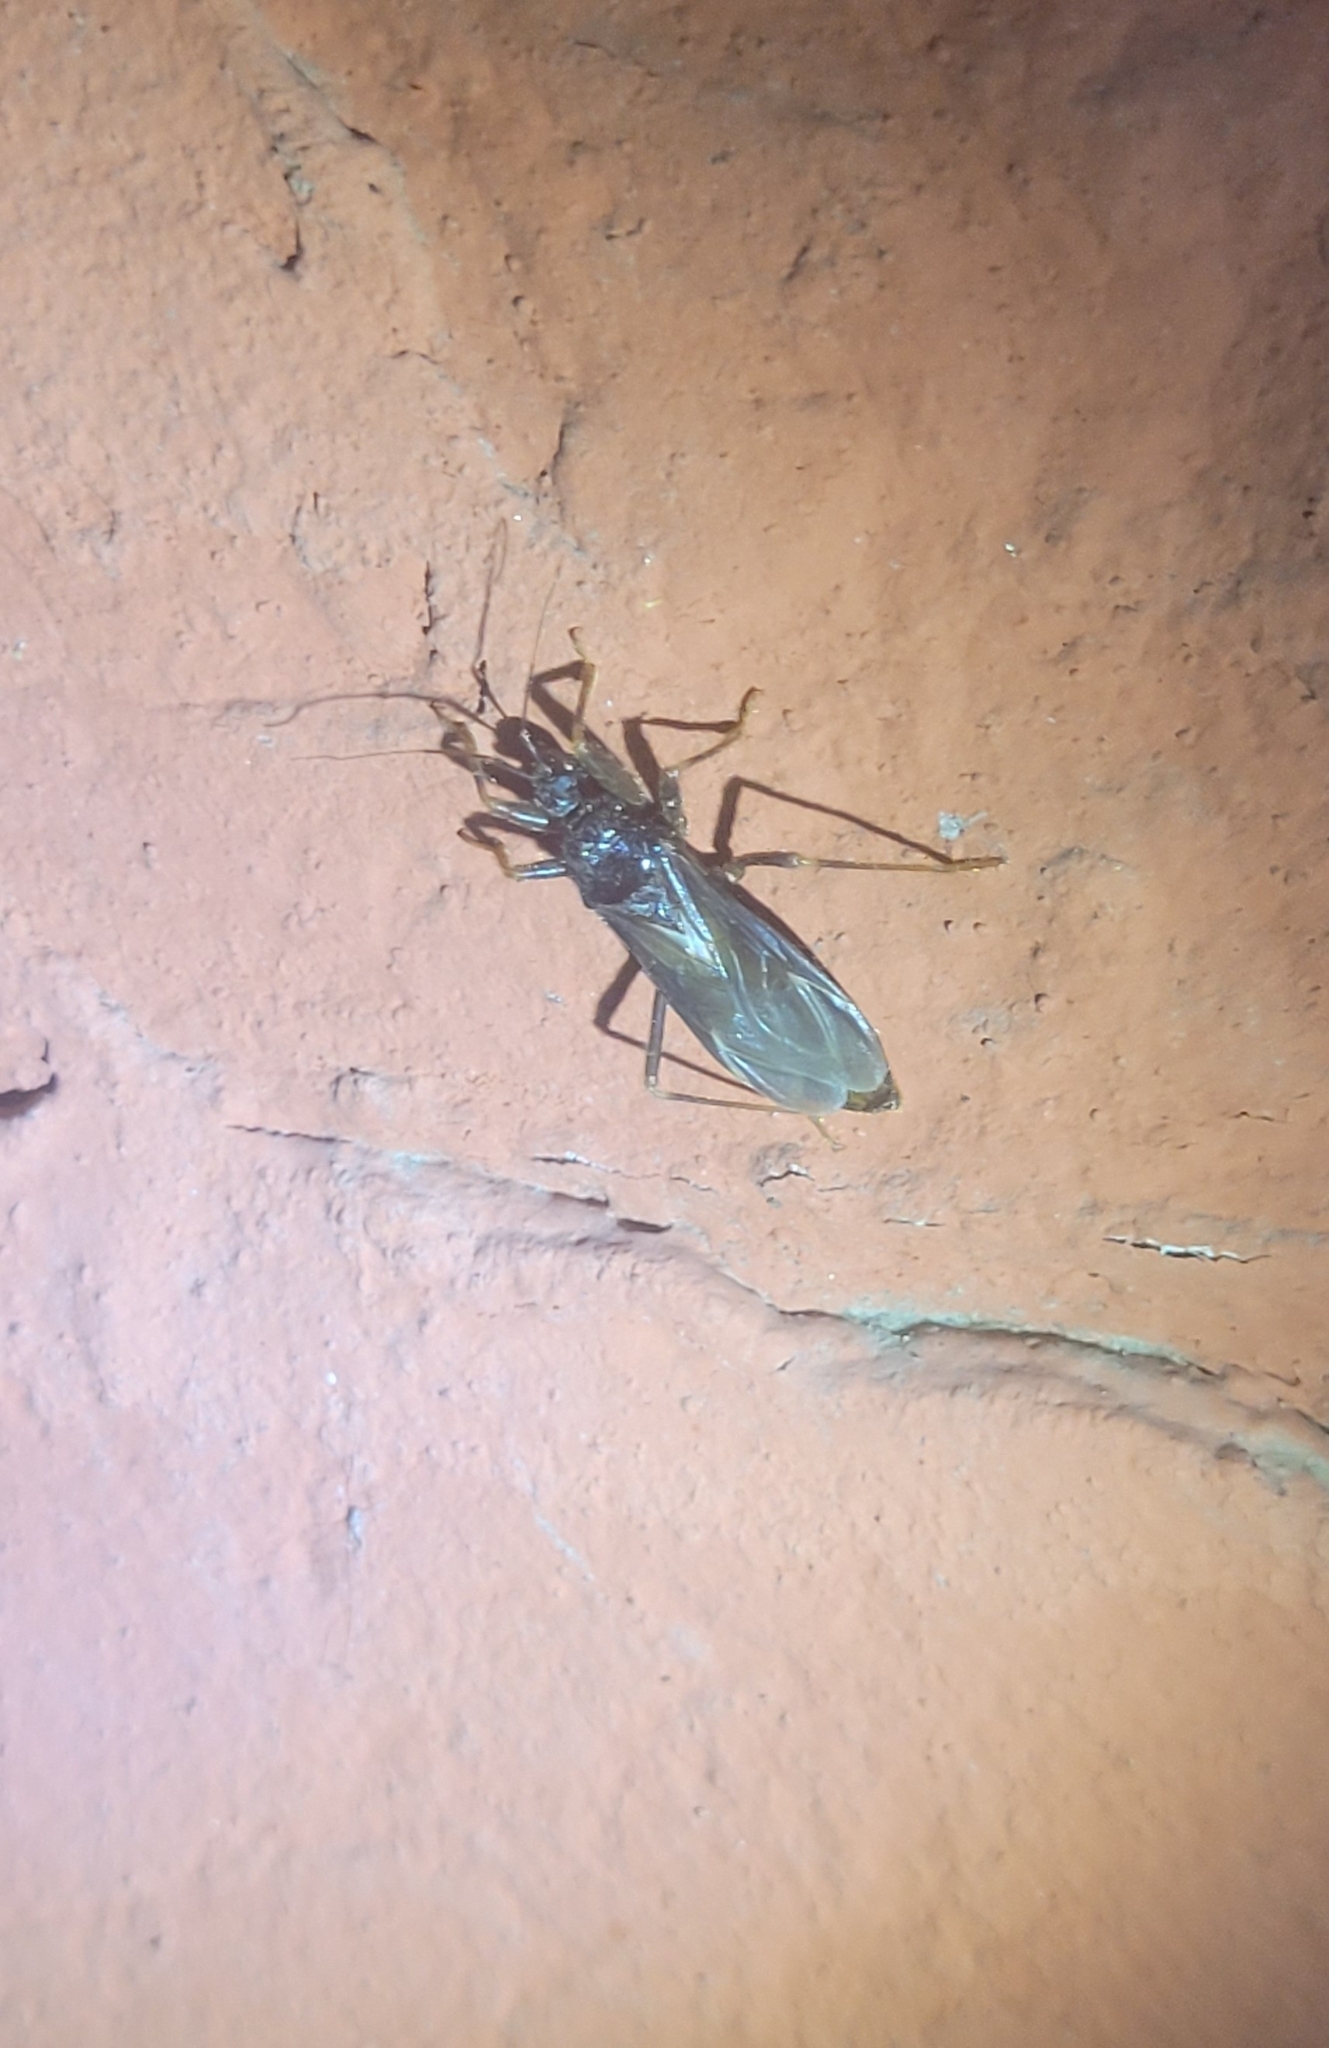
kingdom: Animalia
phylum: Arthropoda
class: Insecta
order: Hemiptera
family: Reduviidae
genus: Reduvius
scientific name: Reduvius personatus
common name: Masked hunter
